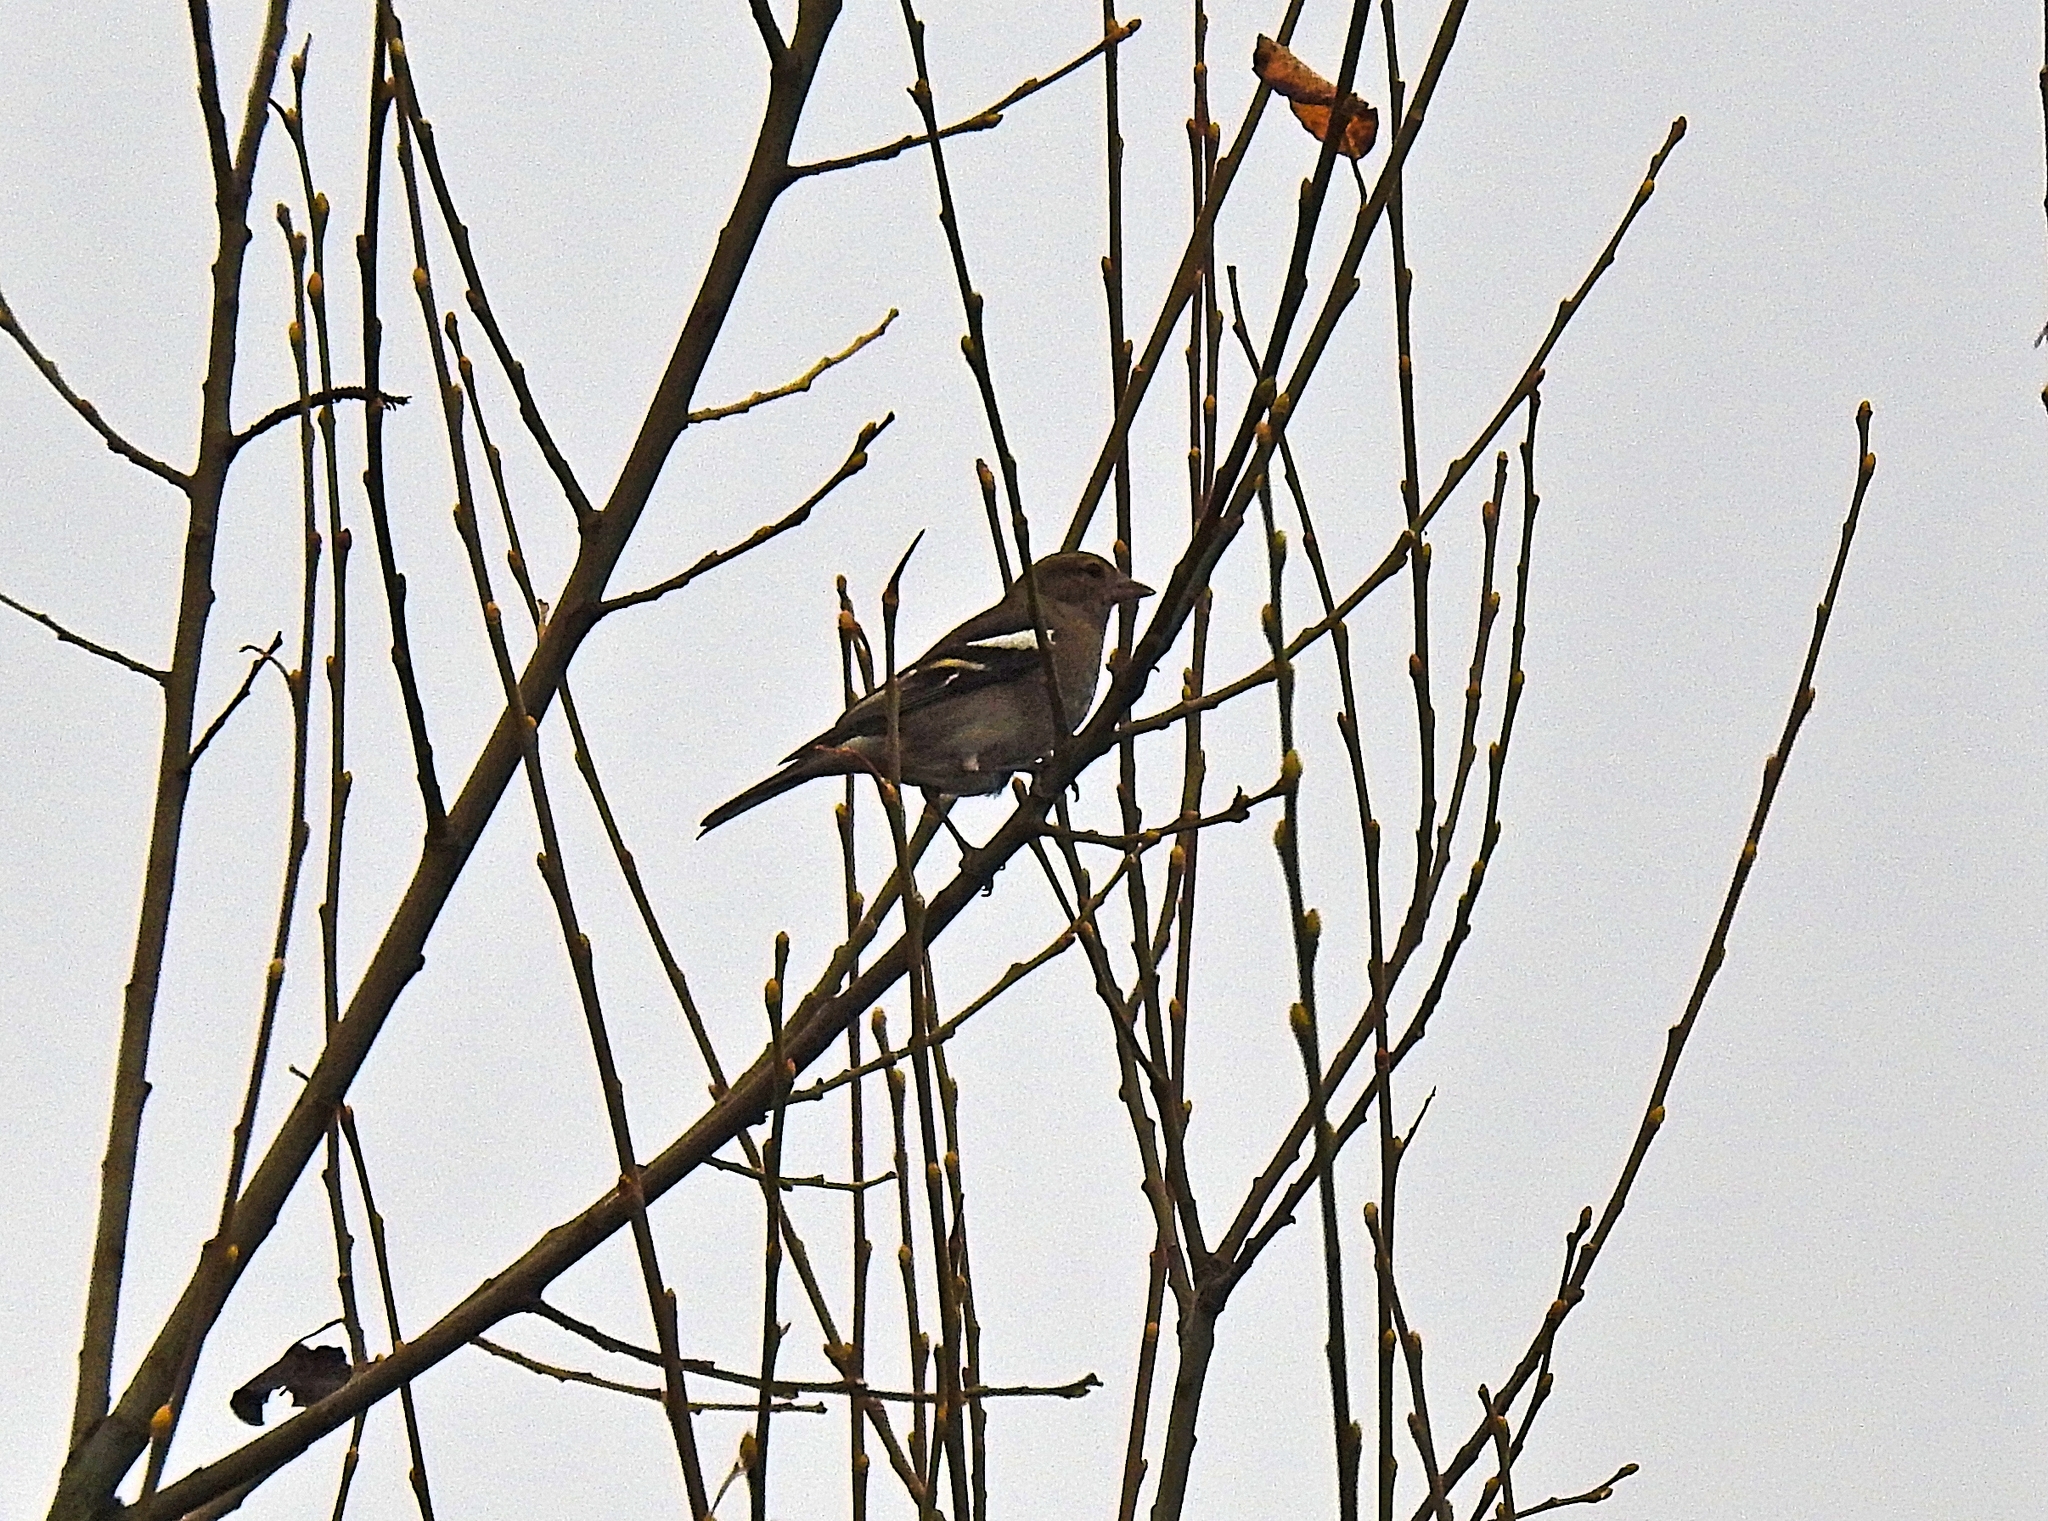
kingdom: Animalia
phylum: Chordata
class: Aves
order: Passeriformes
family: Fringillidae
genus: Fringilla
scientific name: Fringilla coelebs
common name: Common chaffinch
